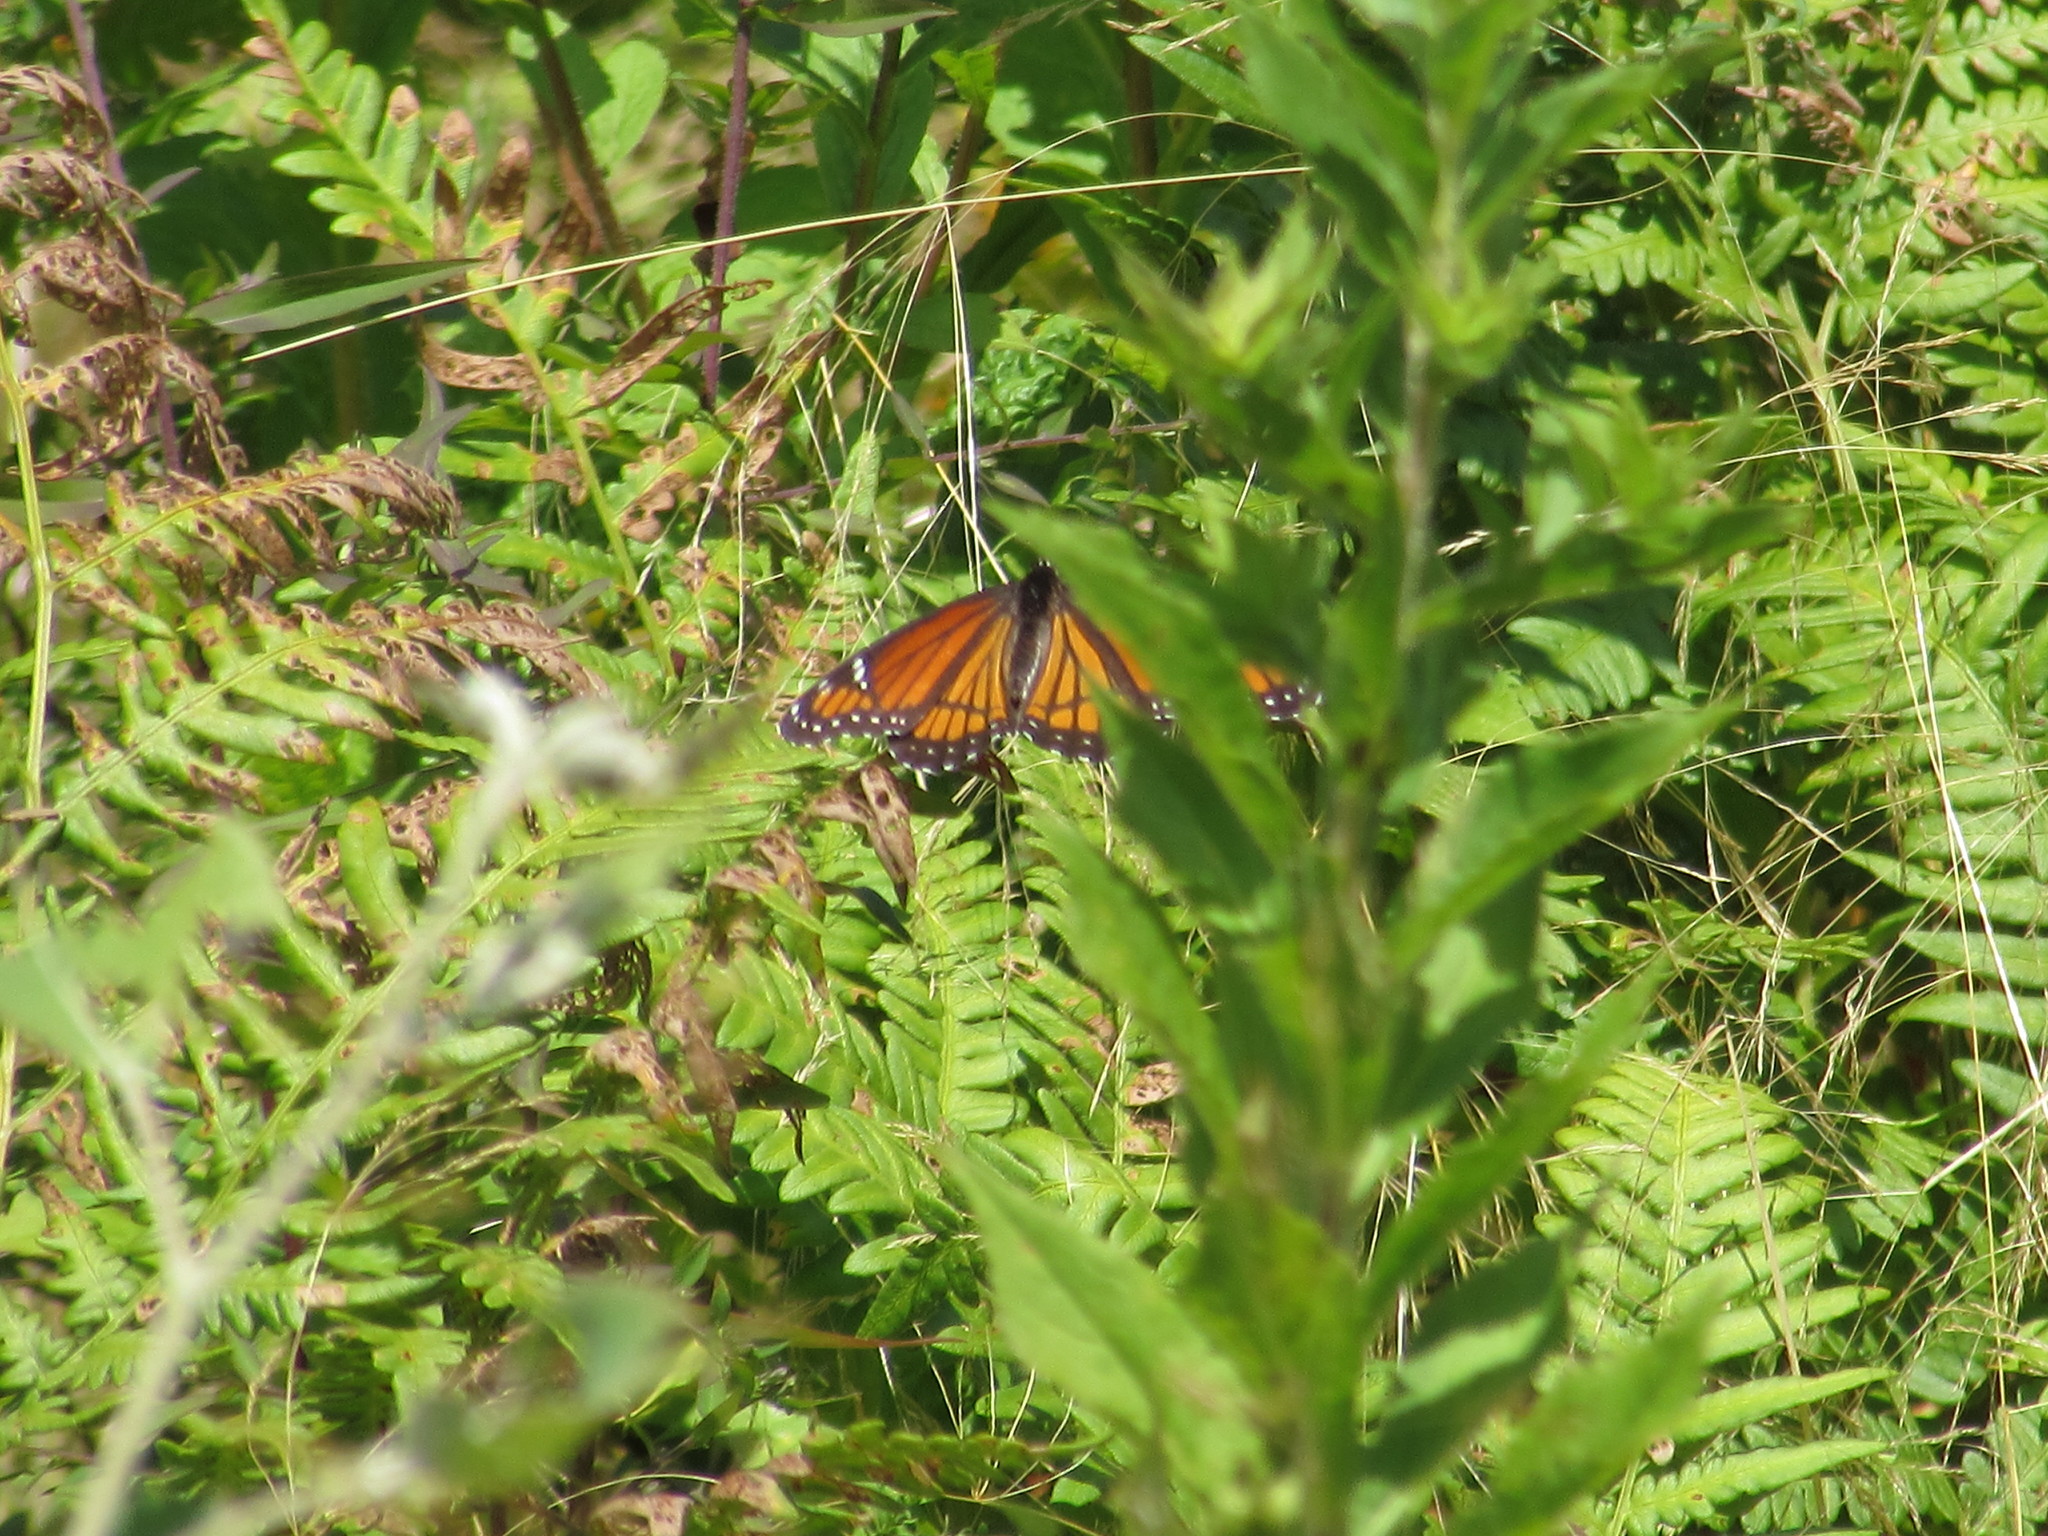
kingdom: Animalia
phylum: Arthropoda
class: Insecta
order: Lepidoptera
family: Nymphalidae
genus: Limenitis
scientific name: Limenitis archippus
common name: Viceroy
